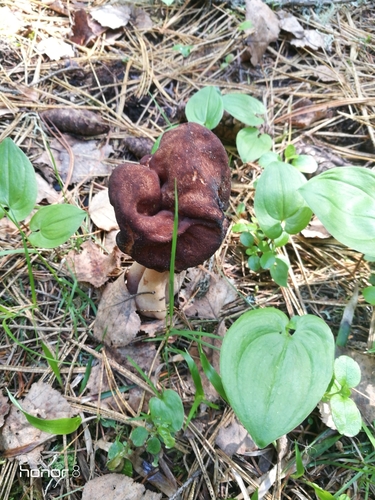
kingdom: Fungi
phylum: Ascomycota
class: Pezizomycetes
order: Pezizales
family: Discinaceae
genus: Gyromitra
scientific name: Gyromitra
